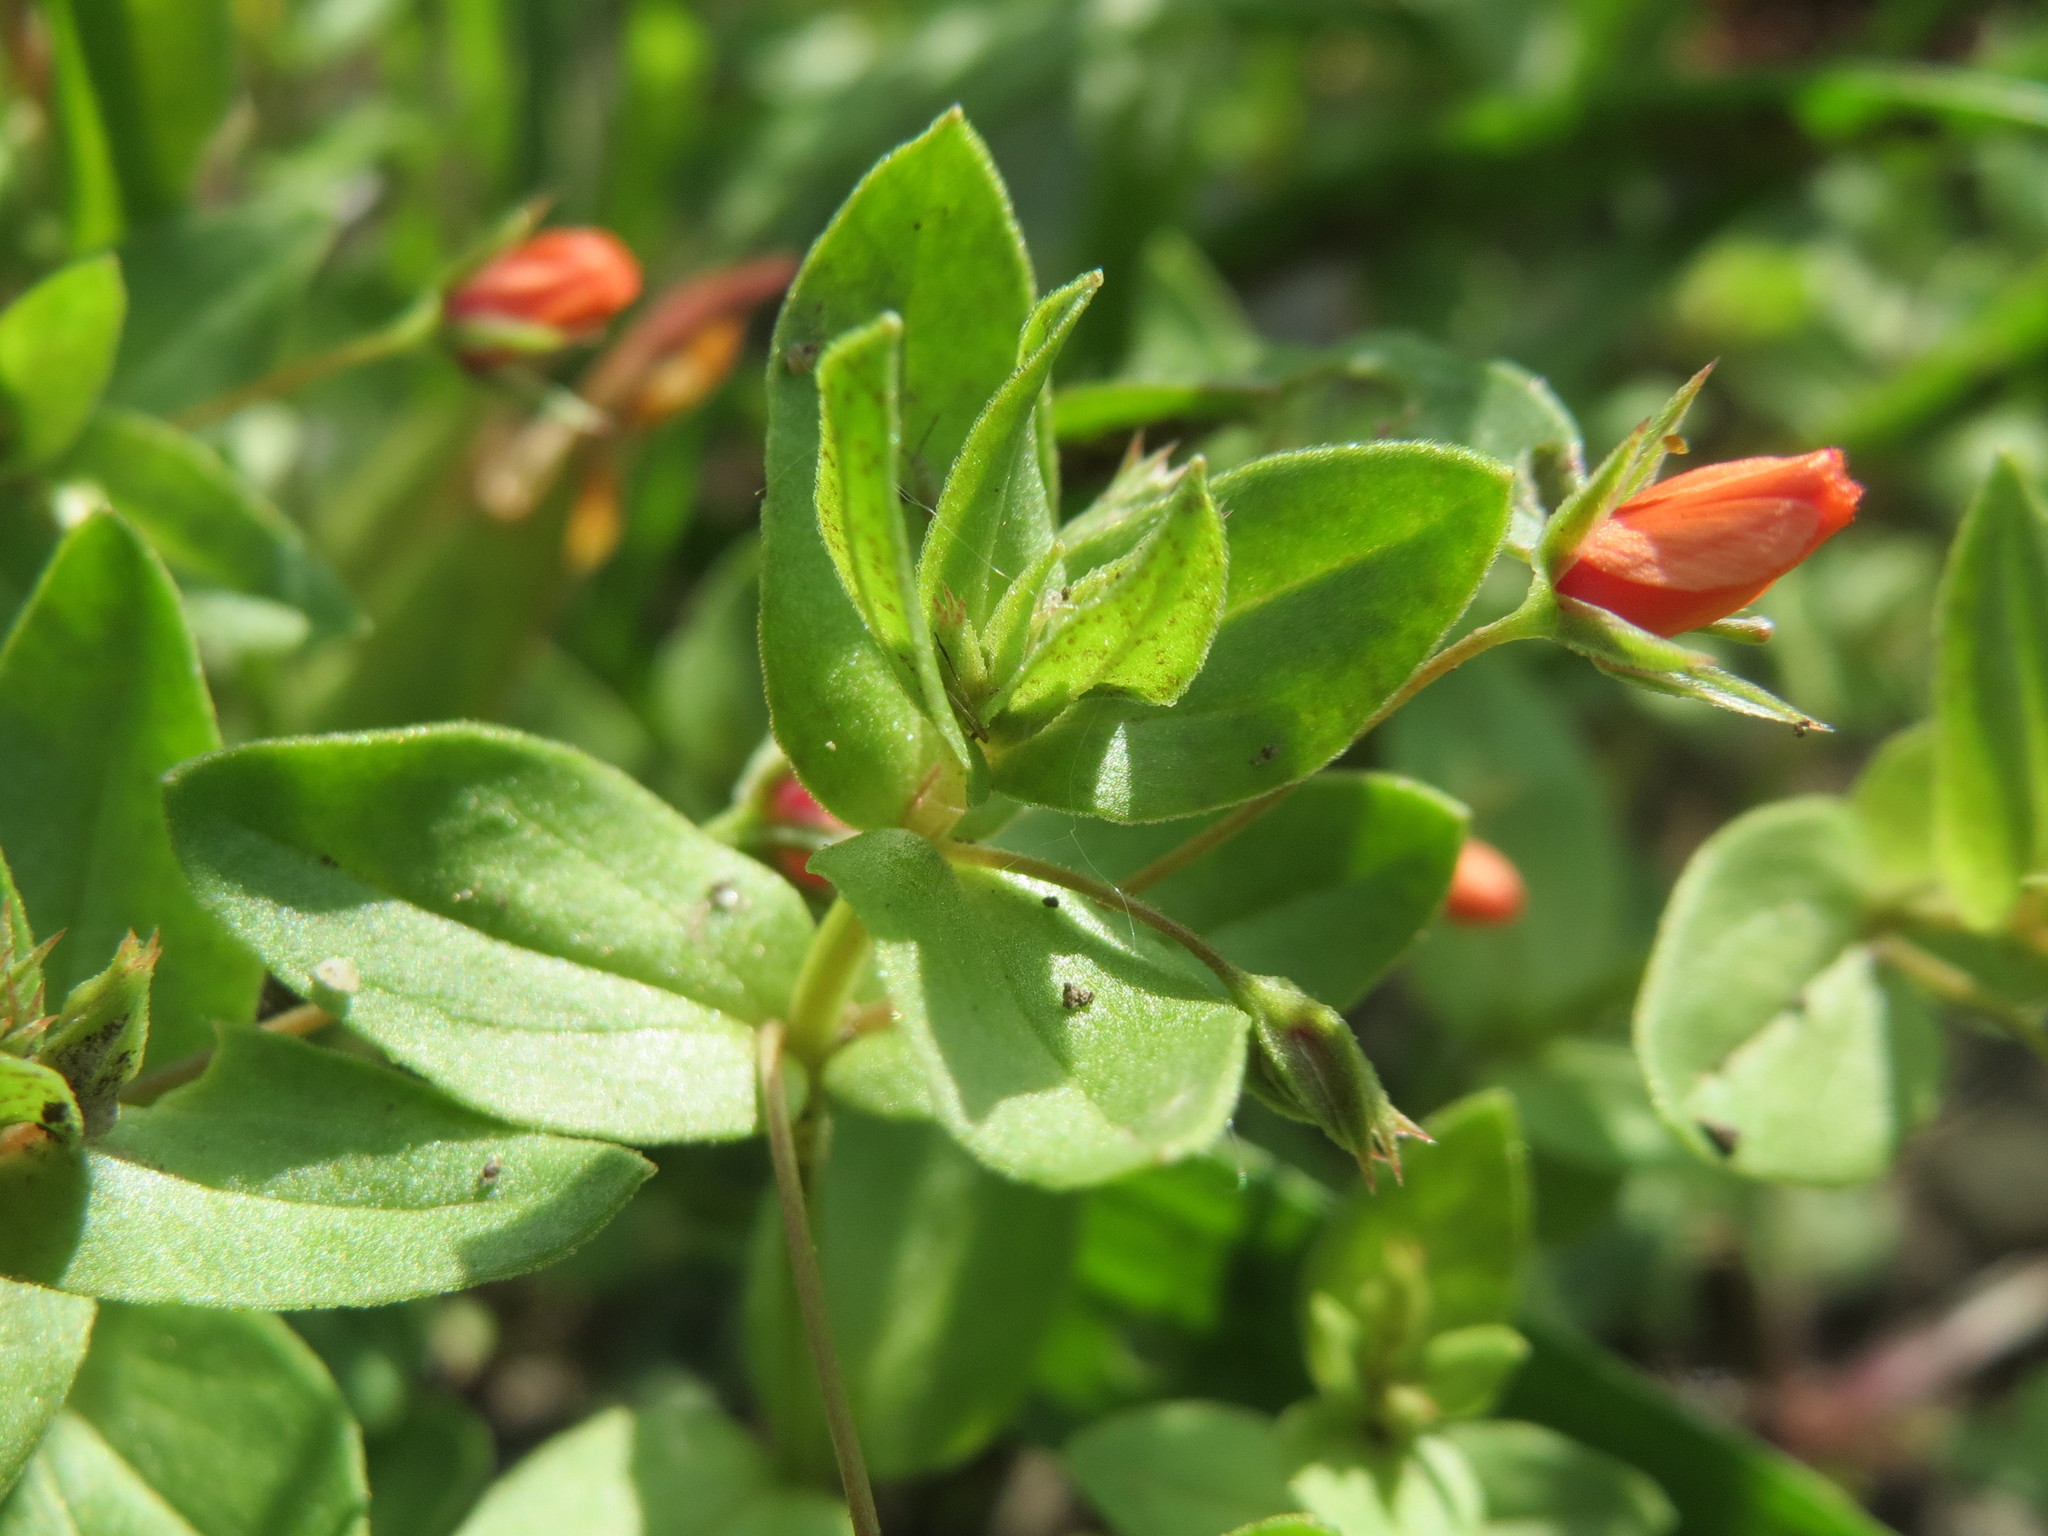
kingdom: Plantae
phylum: Tracheophyta
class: Magnoliopsida
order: Ericales
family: Primulaceae
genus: Lysimachia
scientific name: Lysimachia arvensis
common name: Scarlet pimpernel
